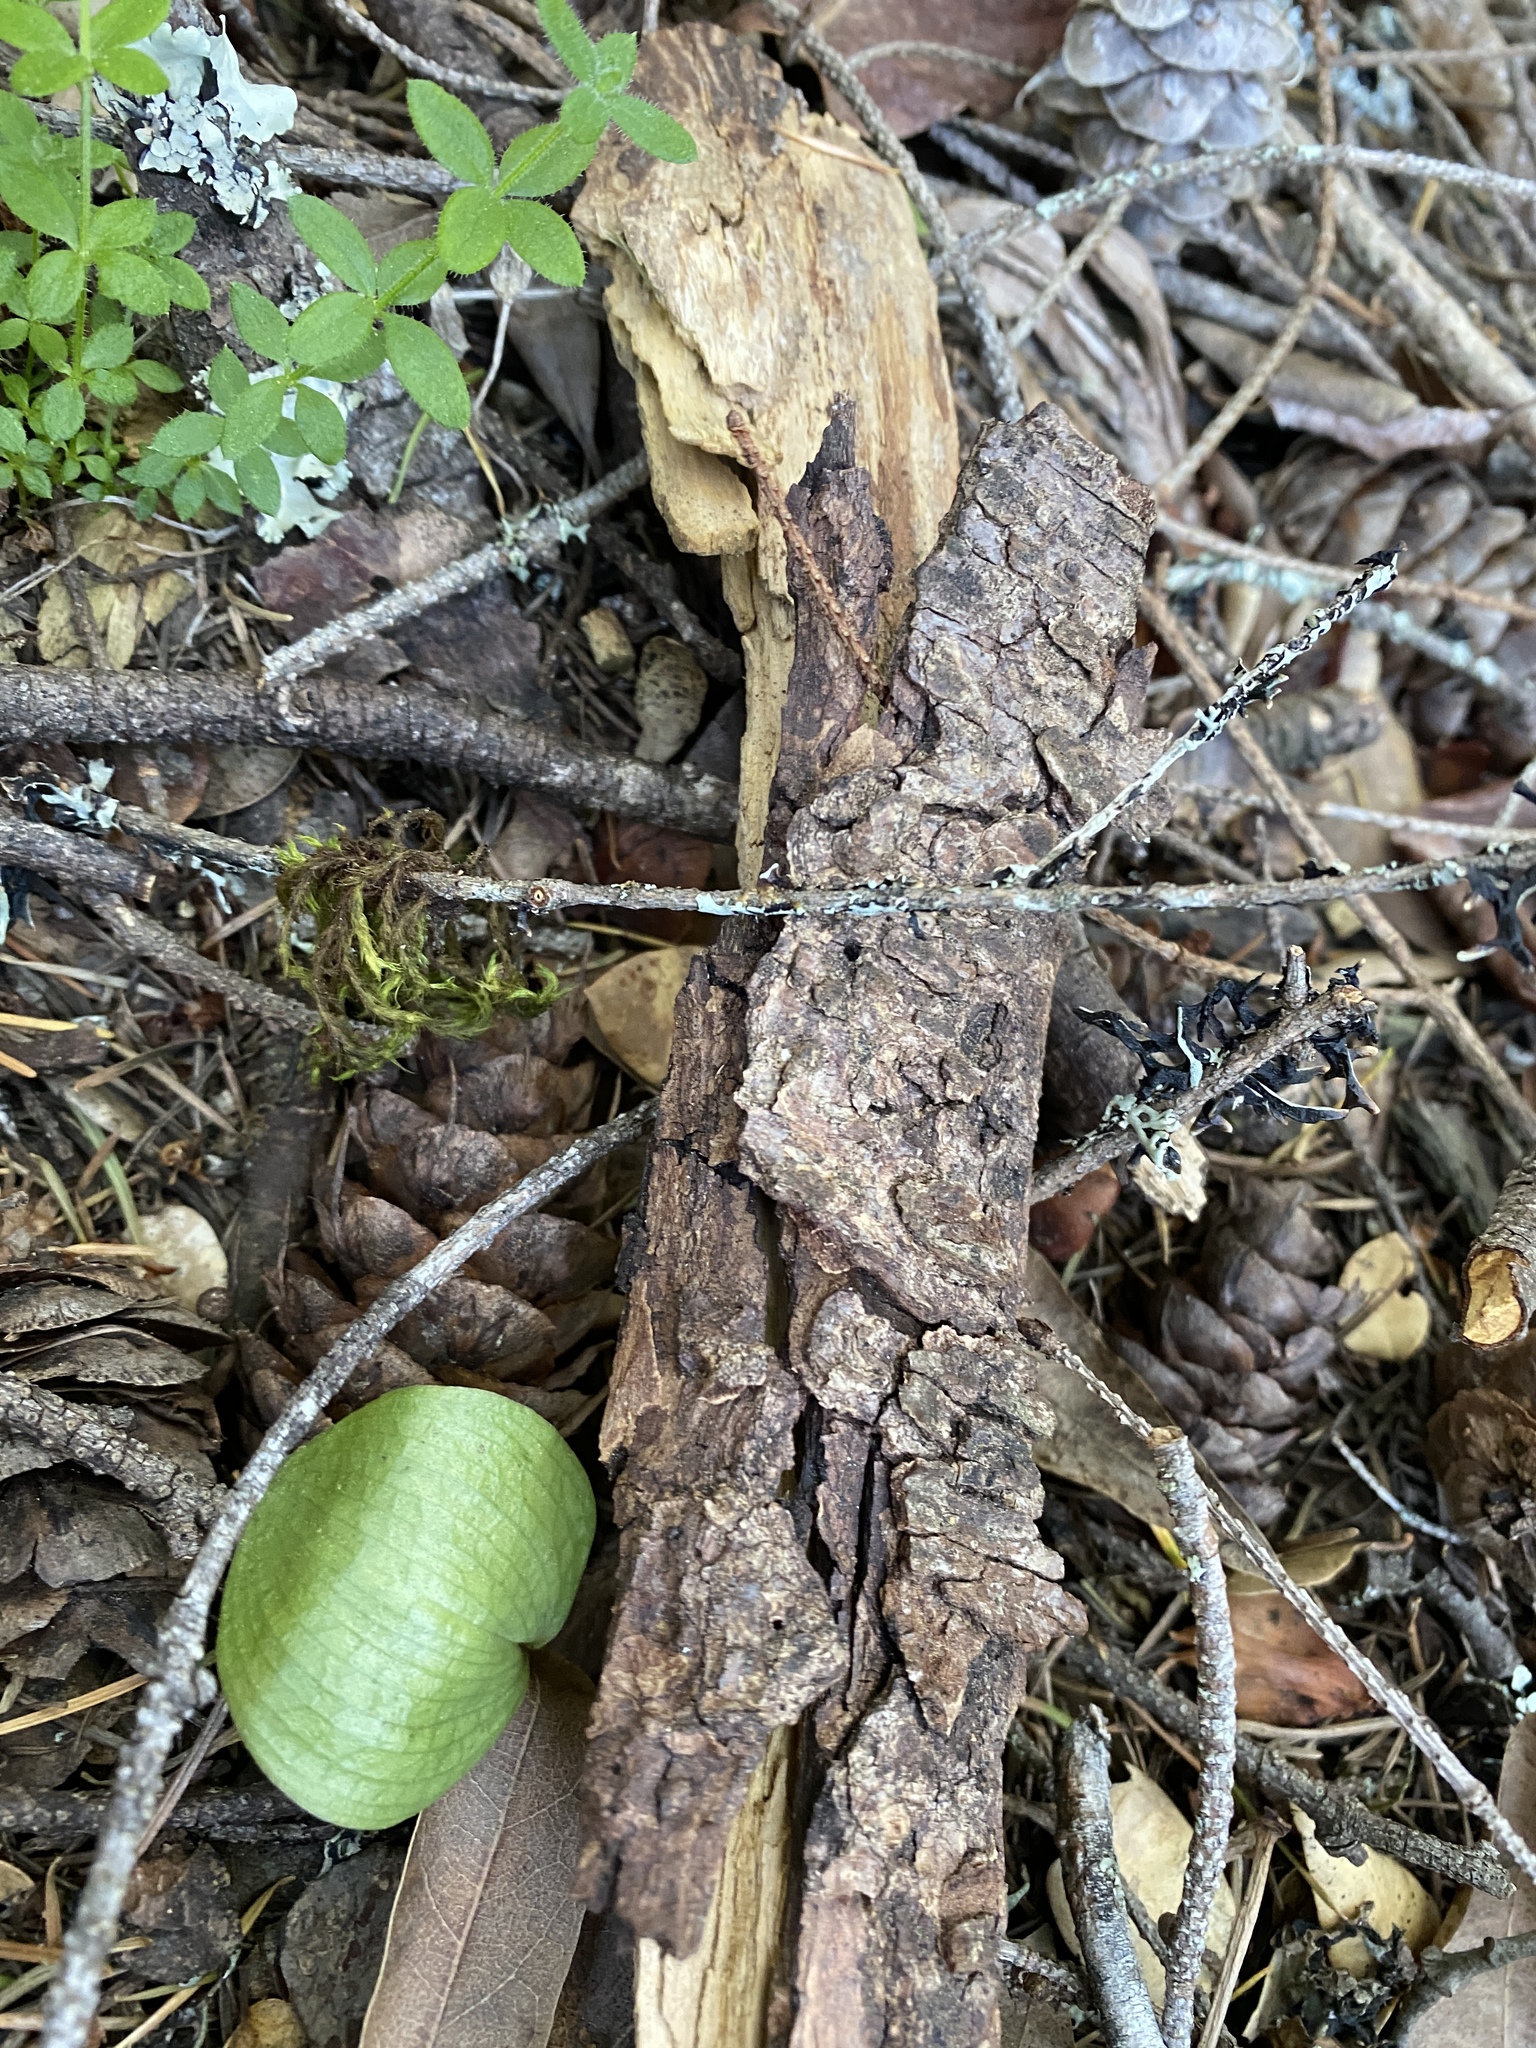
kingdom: Plantae
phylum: Tracheophyta
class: Liliopsida
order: Asparagales
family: Orchidaceae
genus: Calypso
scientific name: Calypso bulbosa
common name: Calypso
